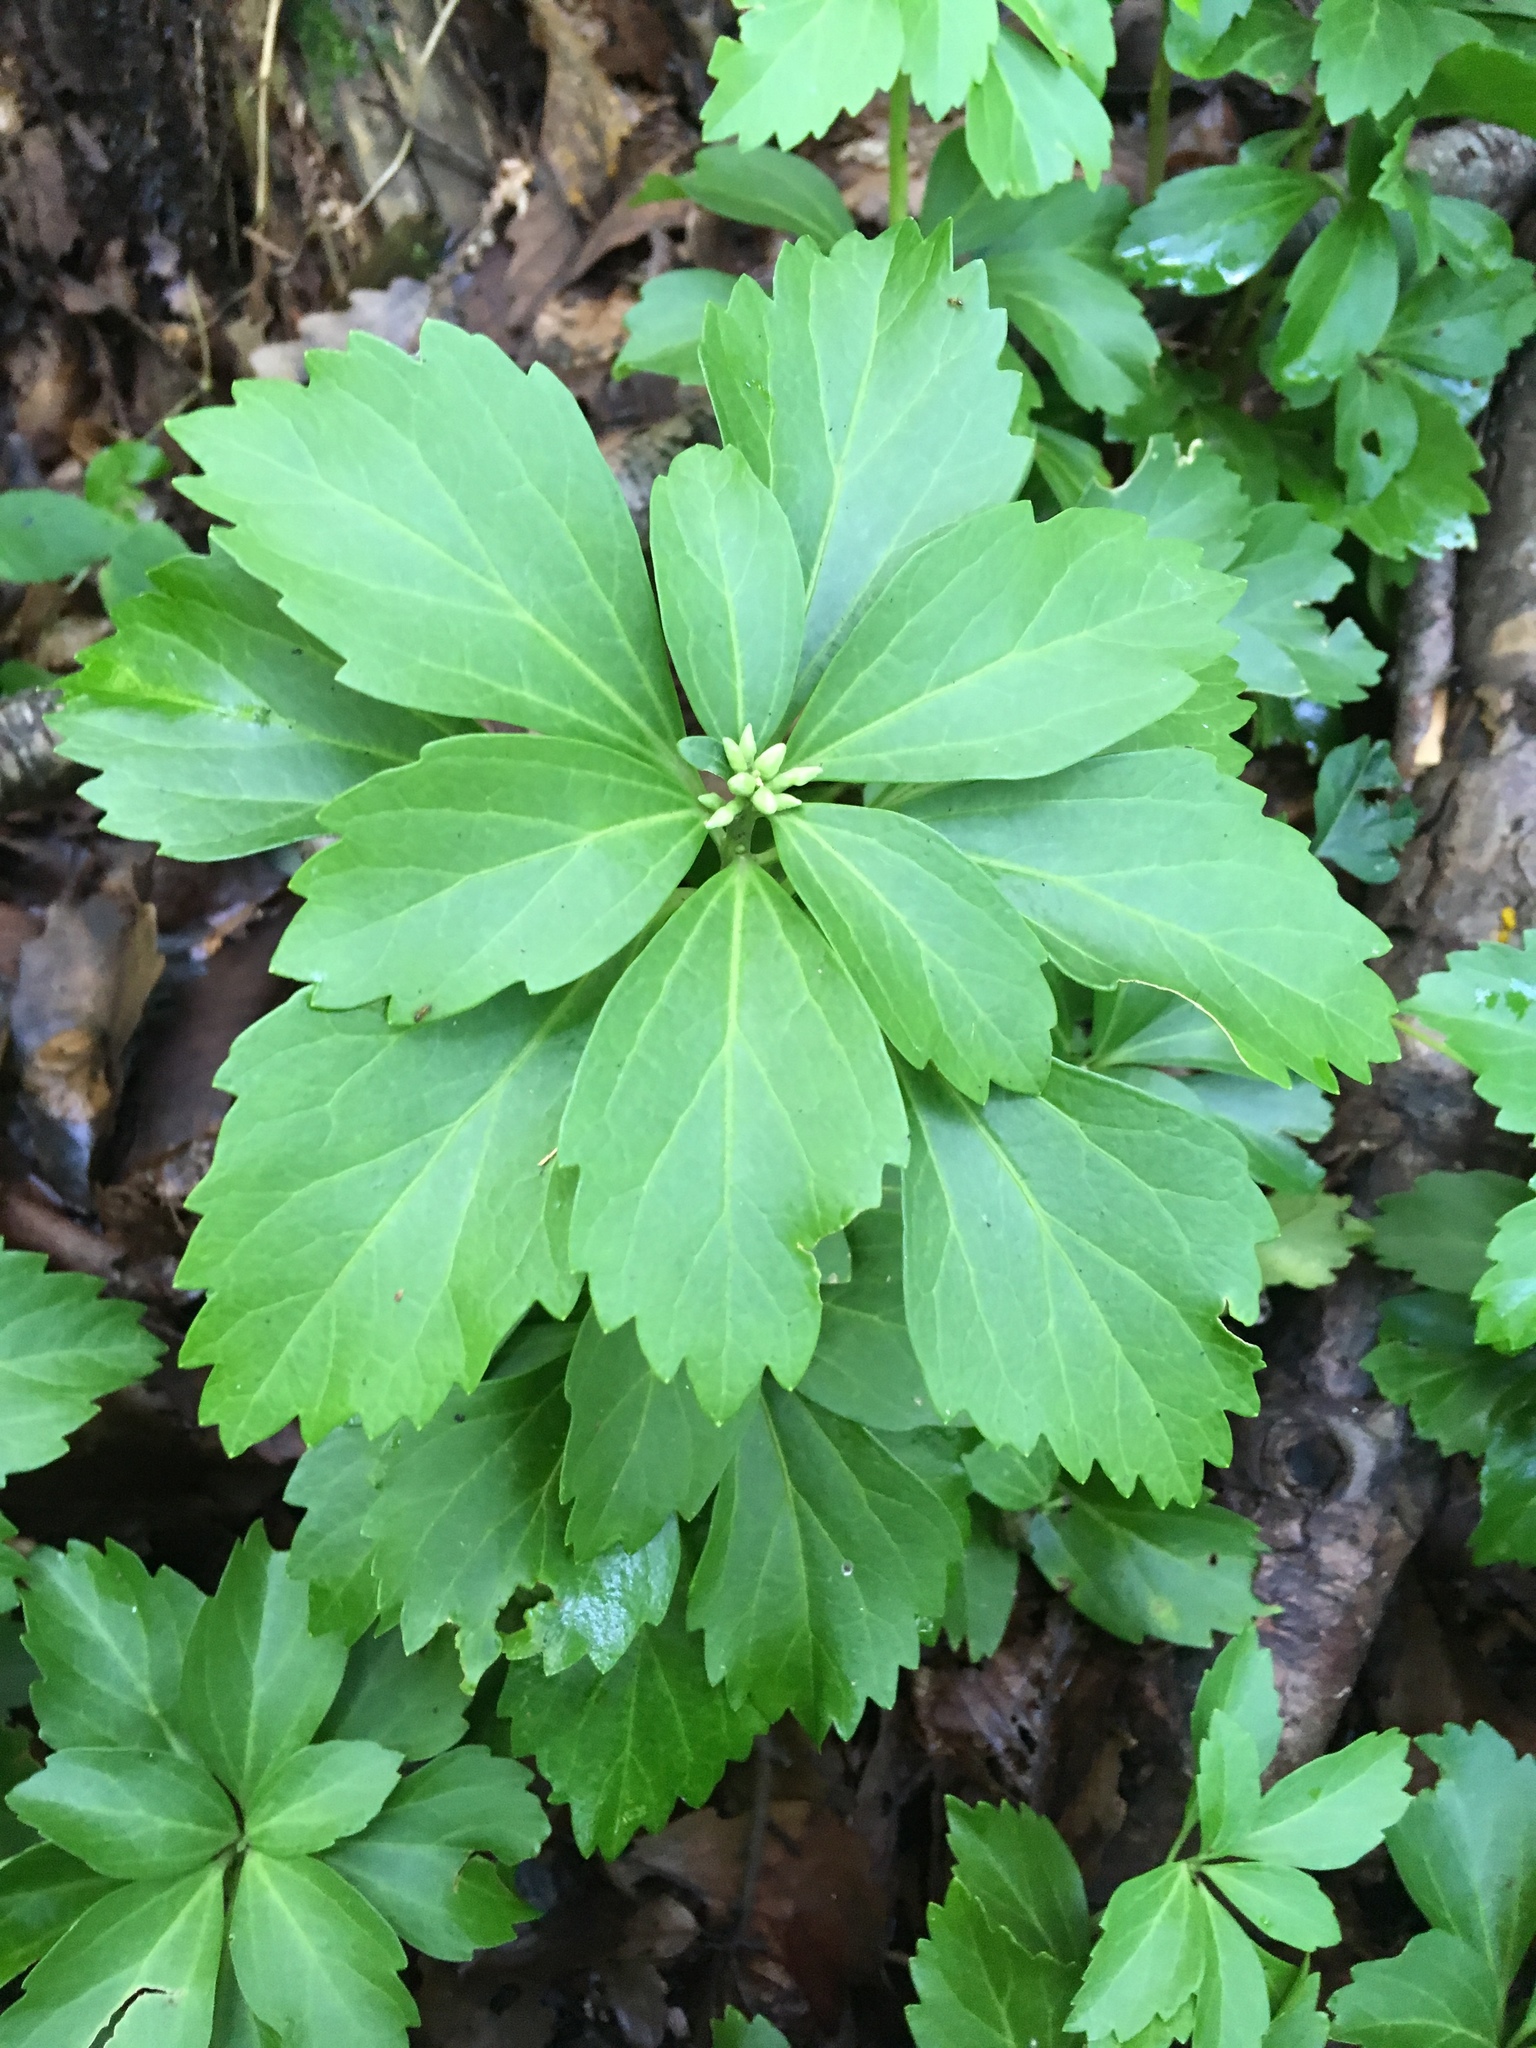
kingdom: Plantae
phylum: Tracheophyta
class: Magnoliopsida
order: Buxales
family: Buxaceae
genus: Pachysandra
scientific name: Pachysandra terminalis
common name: Japanese pachysandra
